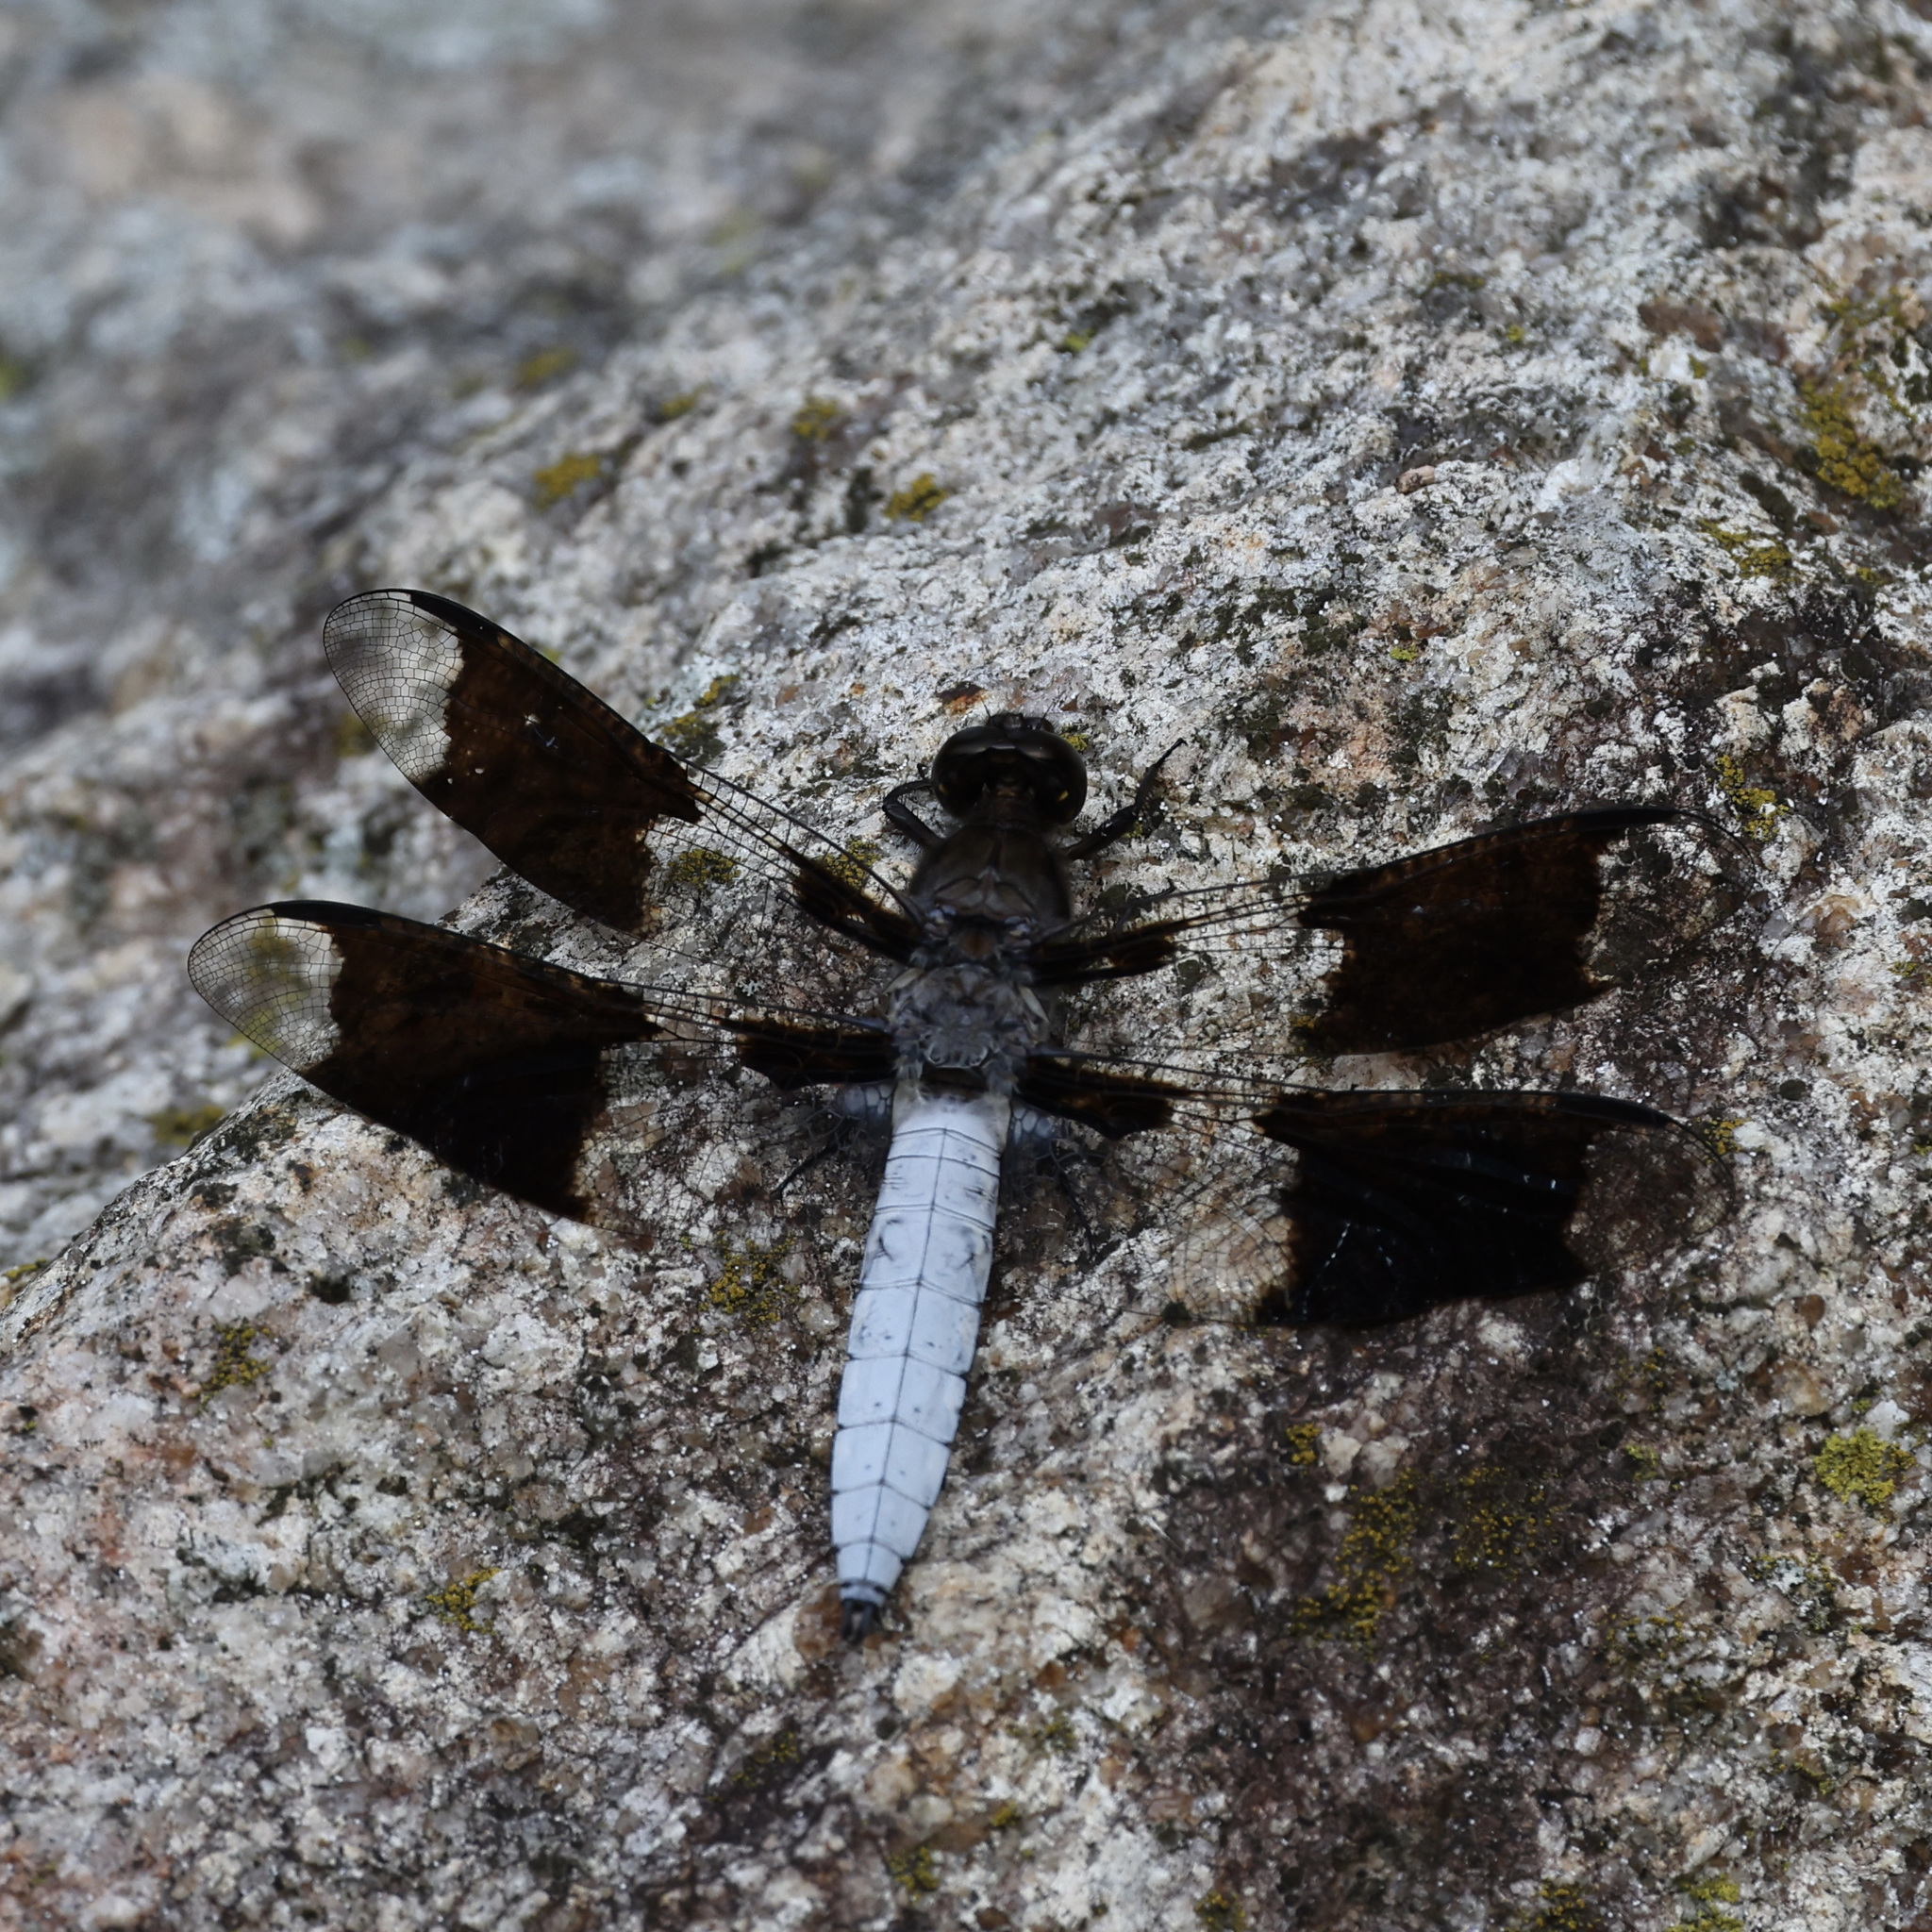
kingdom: Animalia
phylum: Arthropoda
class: Insecta
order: Odonata
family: Libellulidae
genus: Plathemis
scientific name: Plathemis lydia
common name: Common whitetail
